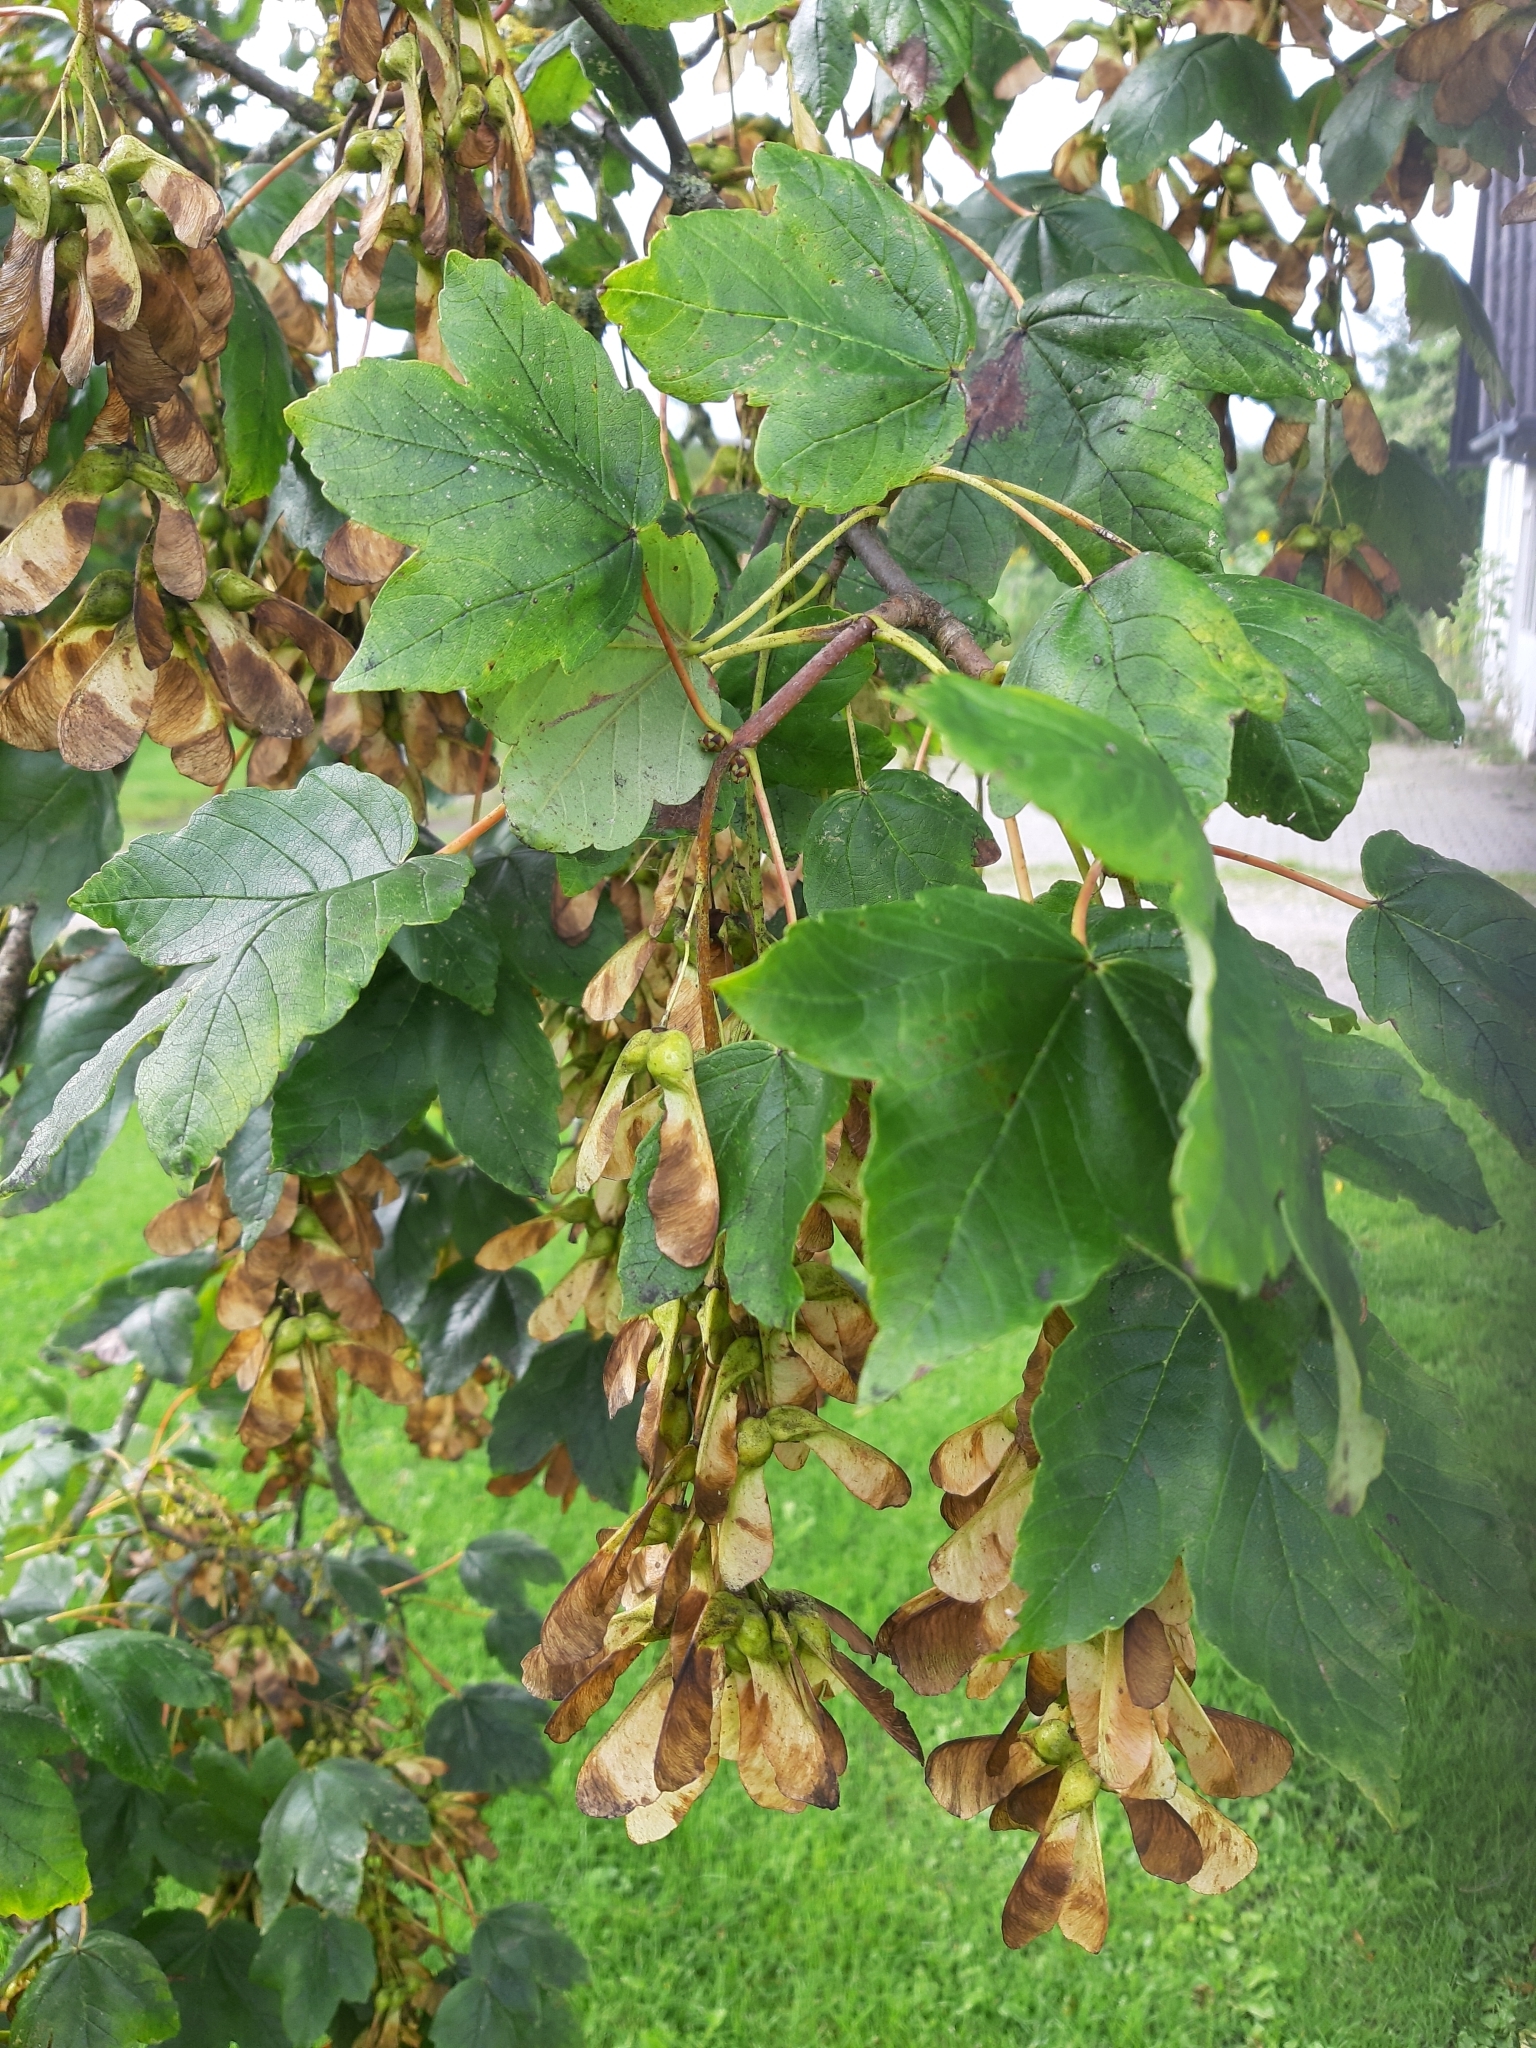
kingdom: Plantae
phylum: Tracheophyta
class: Magnoliopsida
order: Sapindales
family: Sapindaceae
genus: Acer
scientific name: Acer pseudoplatanus
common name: Sycamore
